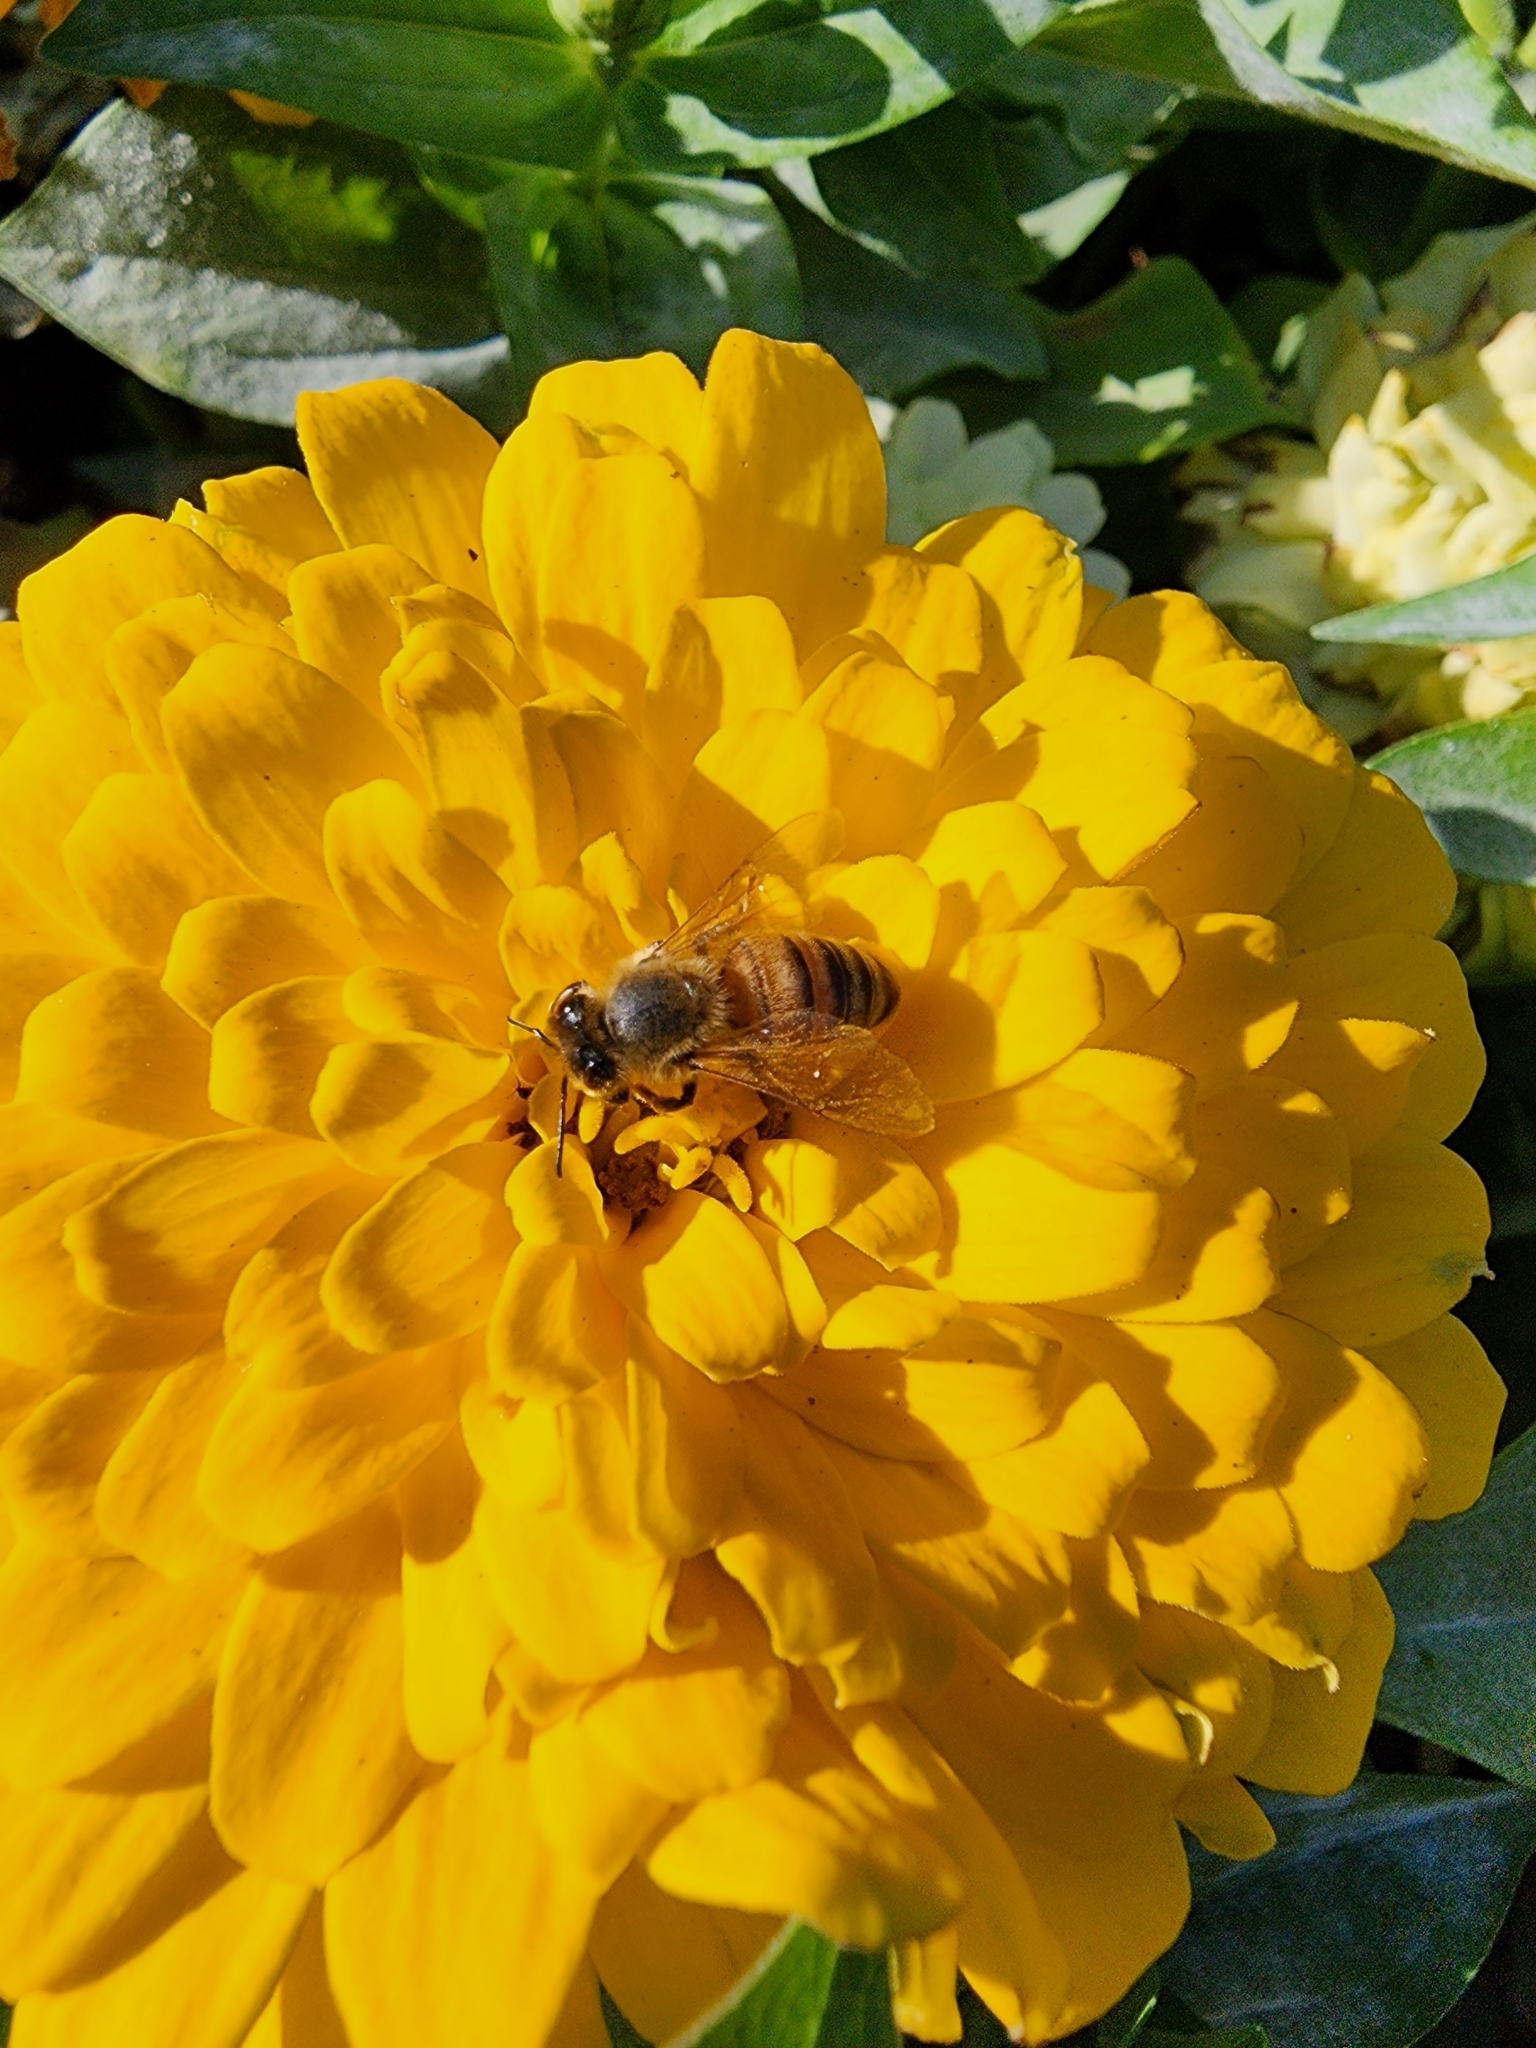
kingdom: Animalia
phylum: Arthropoda
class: Insecta
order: Hymenoptera
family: Apidae
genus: Apis
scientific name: Apis mellifera
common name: Honey bee
